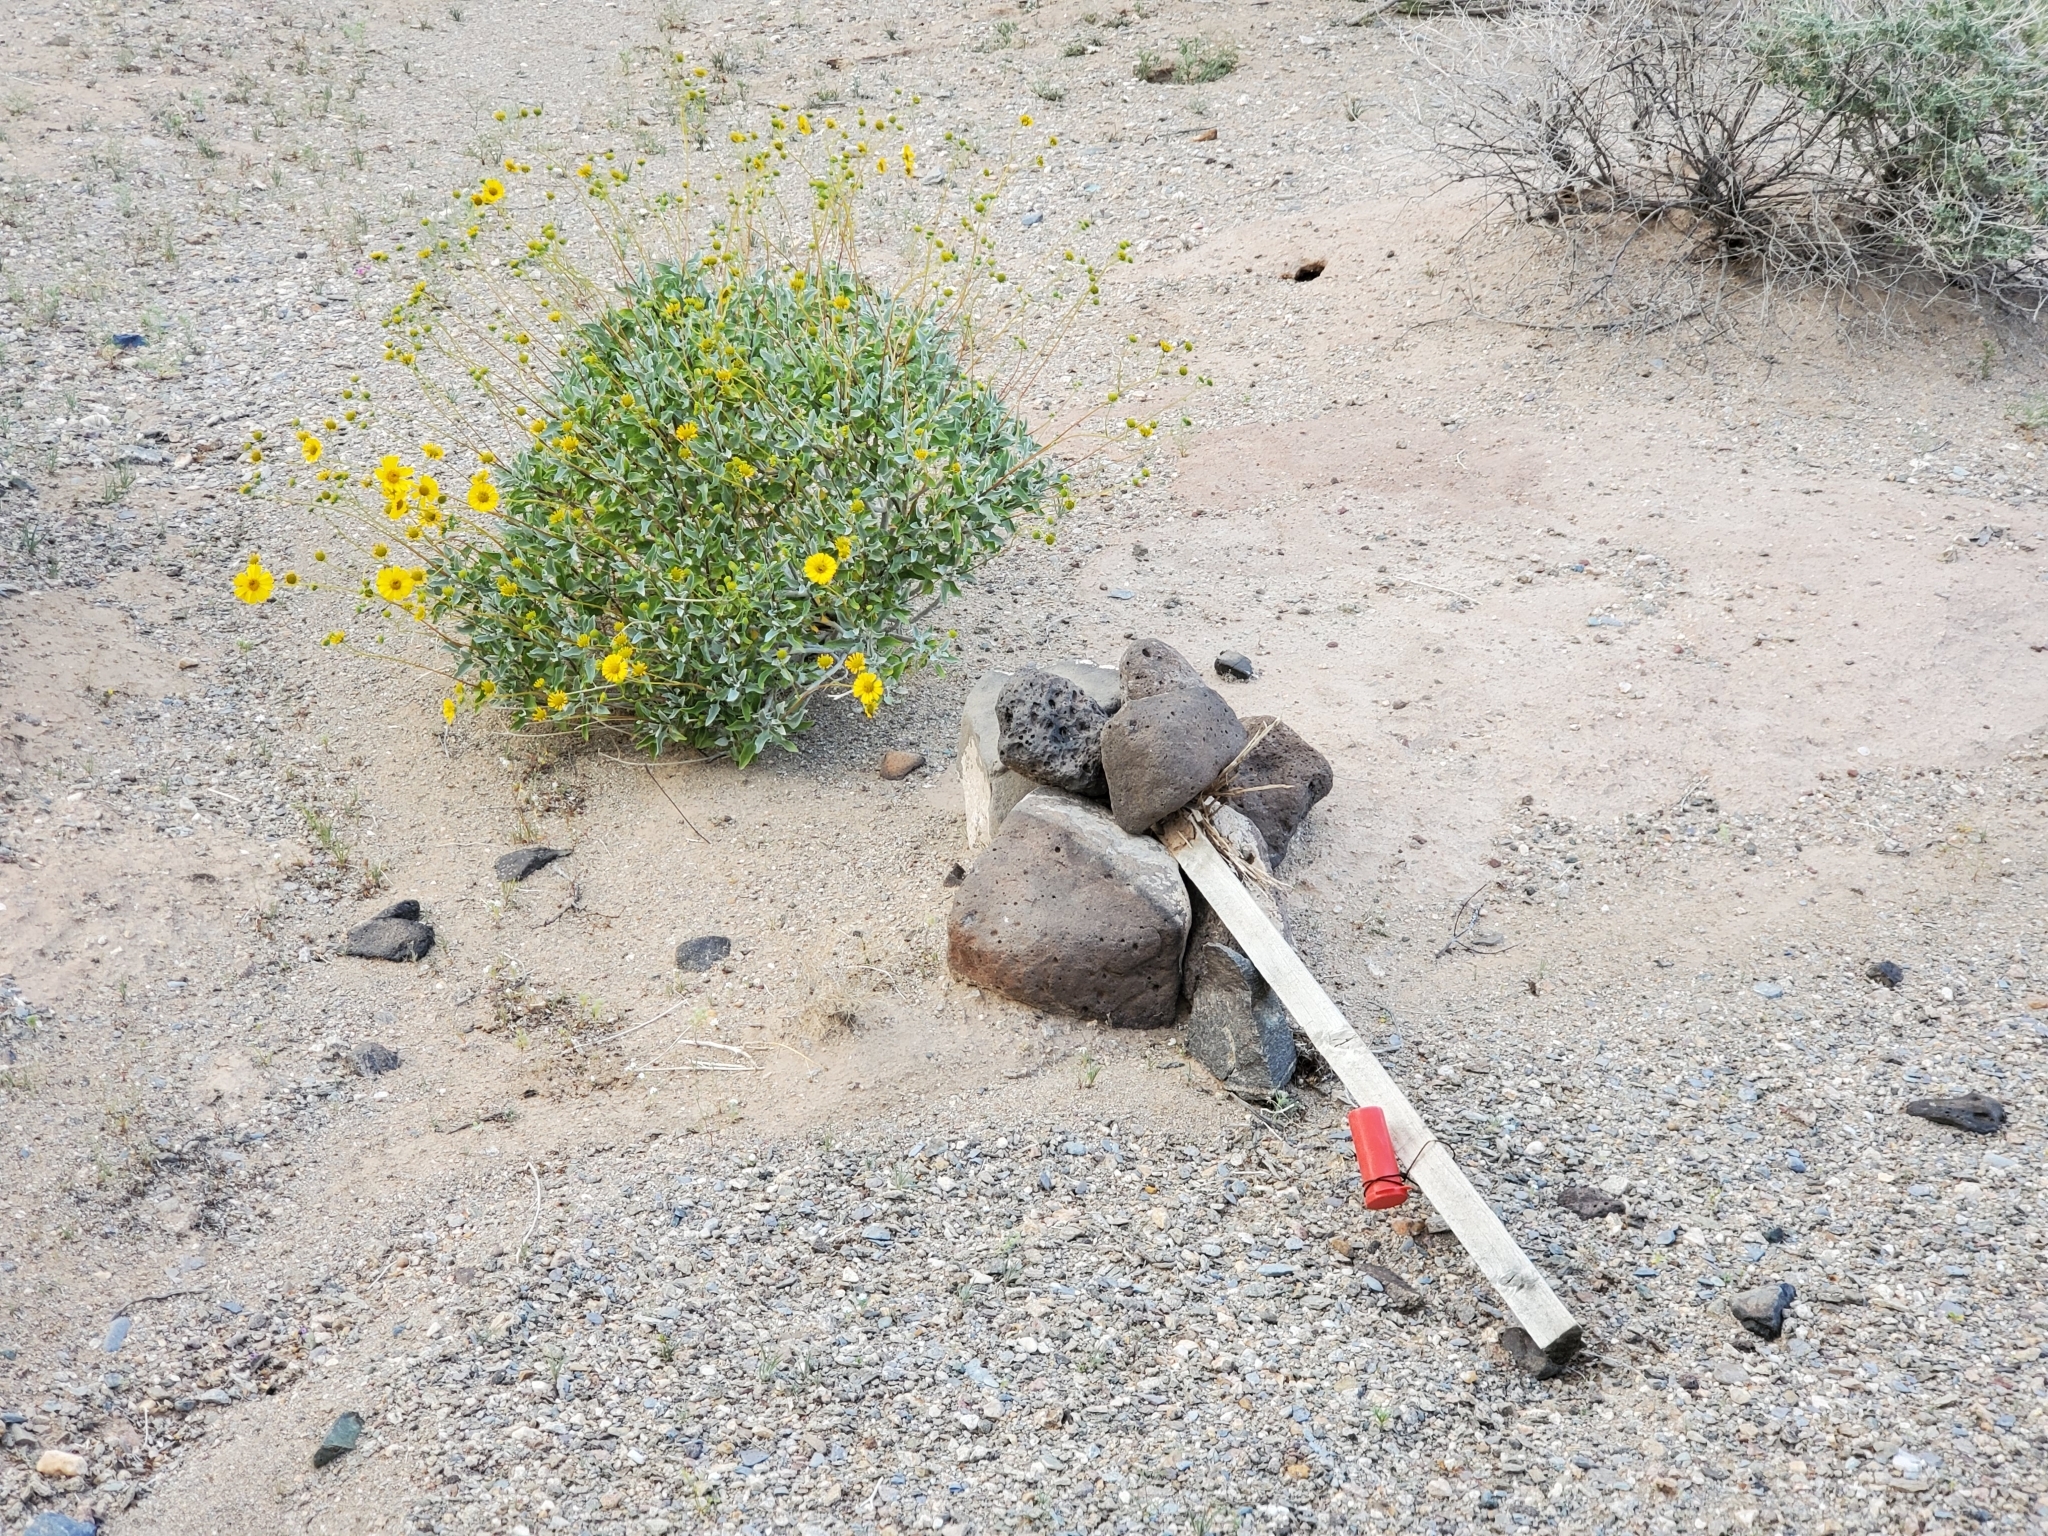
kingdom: Plantae
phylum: Tracheophyta
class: Magnoliopsida
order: Asterales
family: Asteraceae
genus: Encelia
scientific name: Encelia farinosa
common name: Brittlebush
